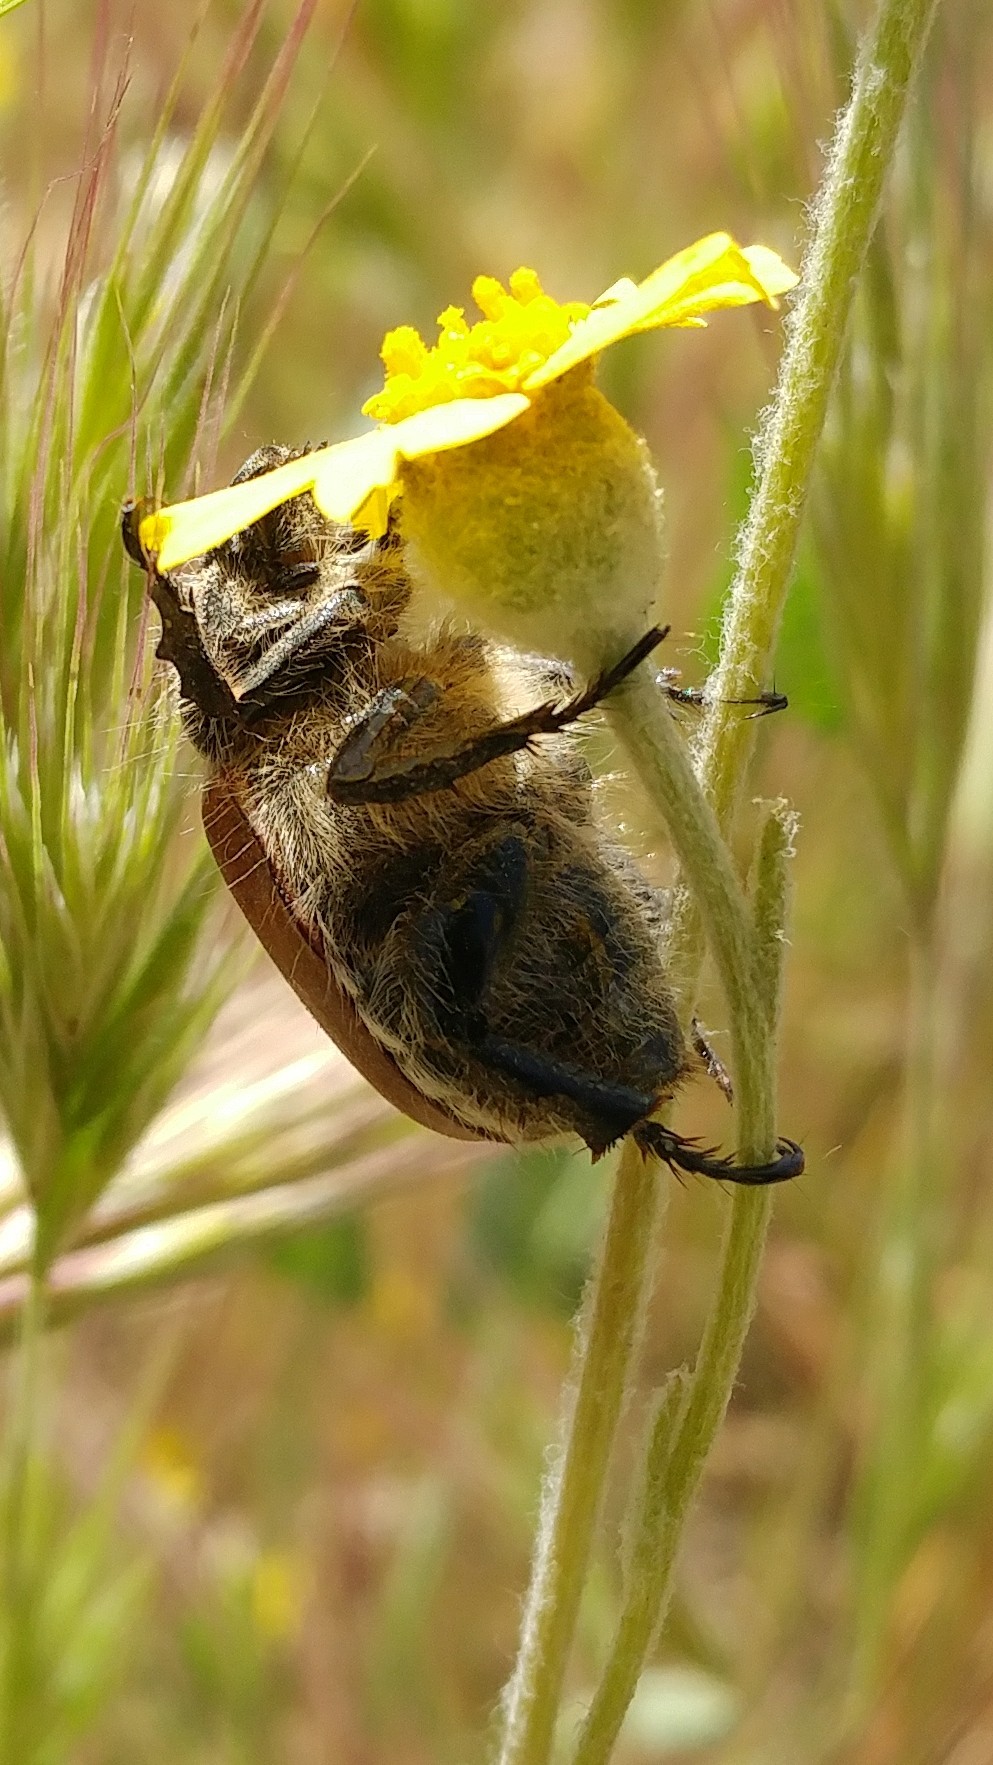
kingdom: Animalia
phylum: Arthropoda
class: Insecta
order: Coleoptera
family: Scarabaeidae
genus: Paracotalpa
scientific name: Paracotalpa ursina
